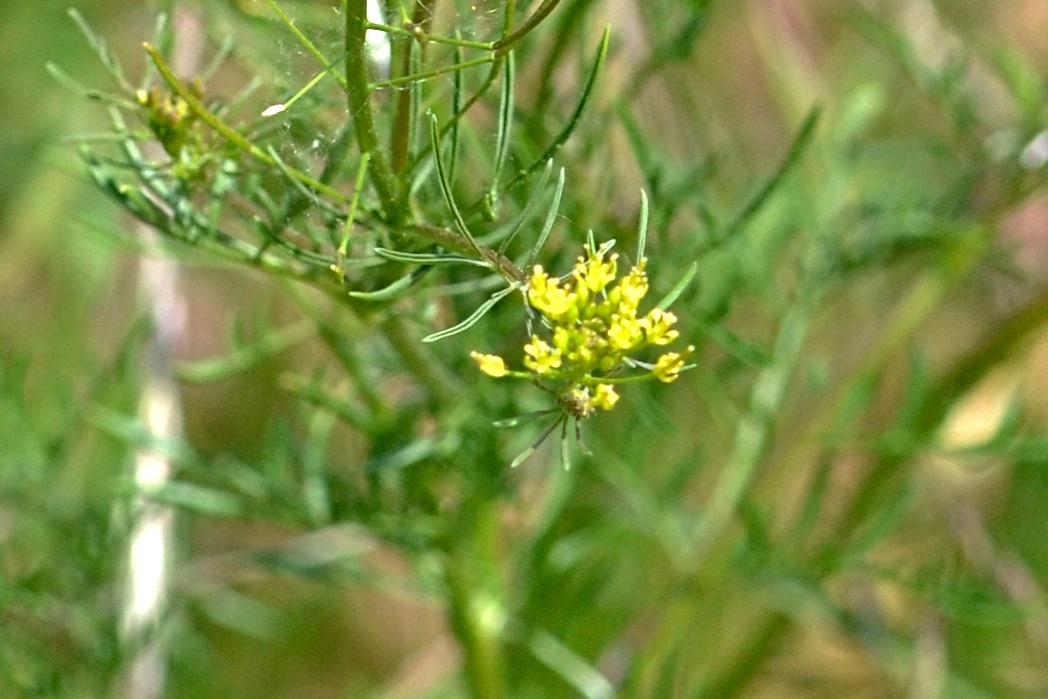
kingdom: Plantae
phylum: Tracheophyta
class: Magnoliopsida
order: Brassicales
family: Brassicaceae
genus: Descurainia
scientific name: Descurainia sophia
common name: Flixweed
